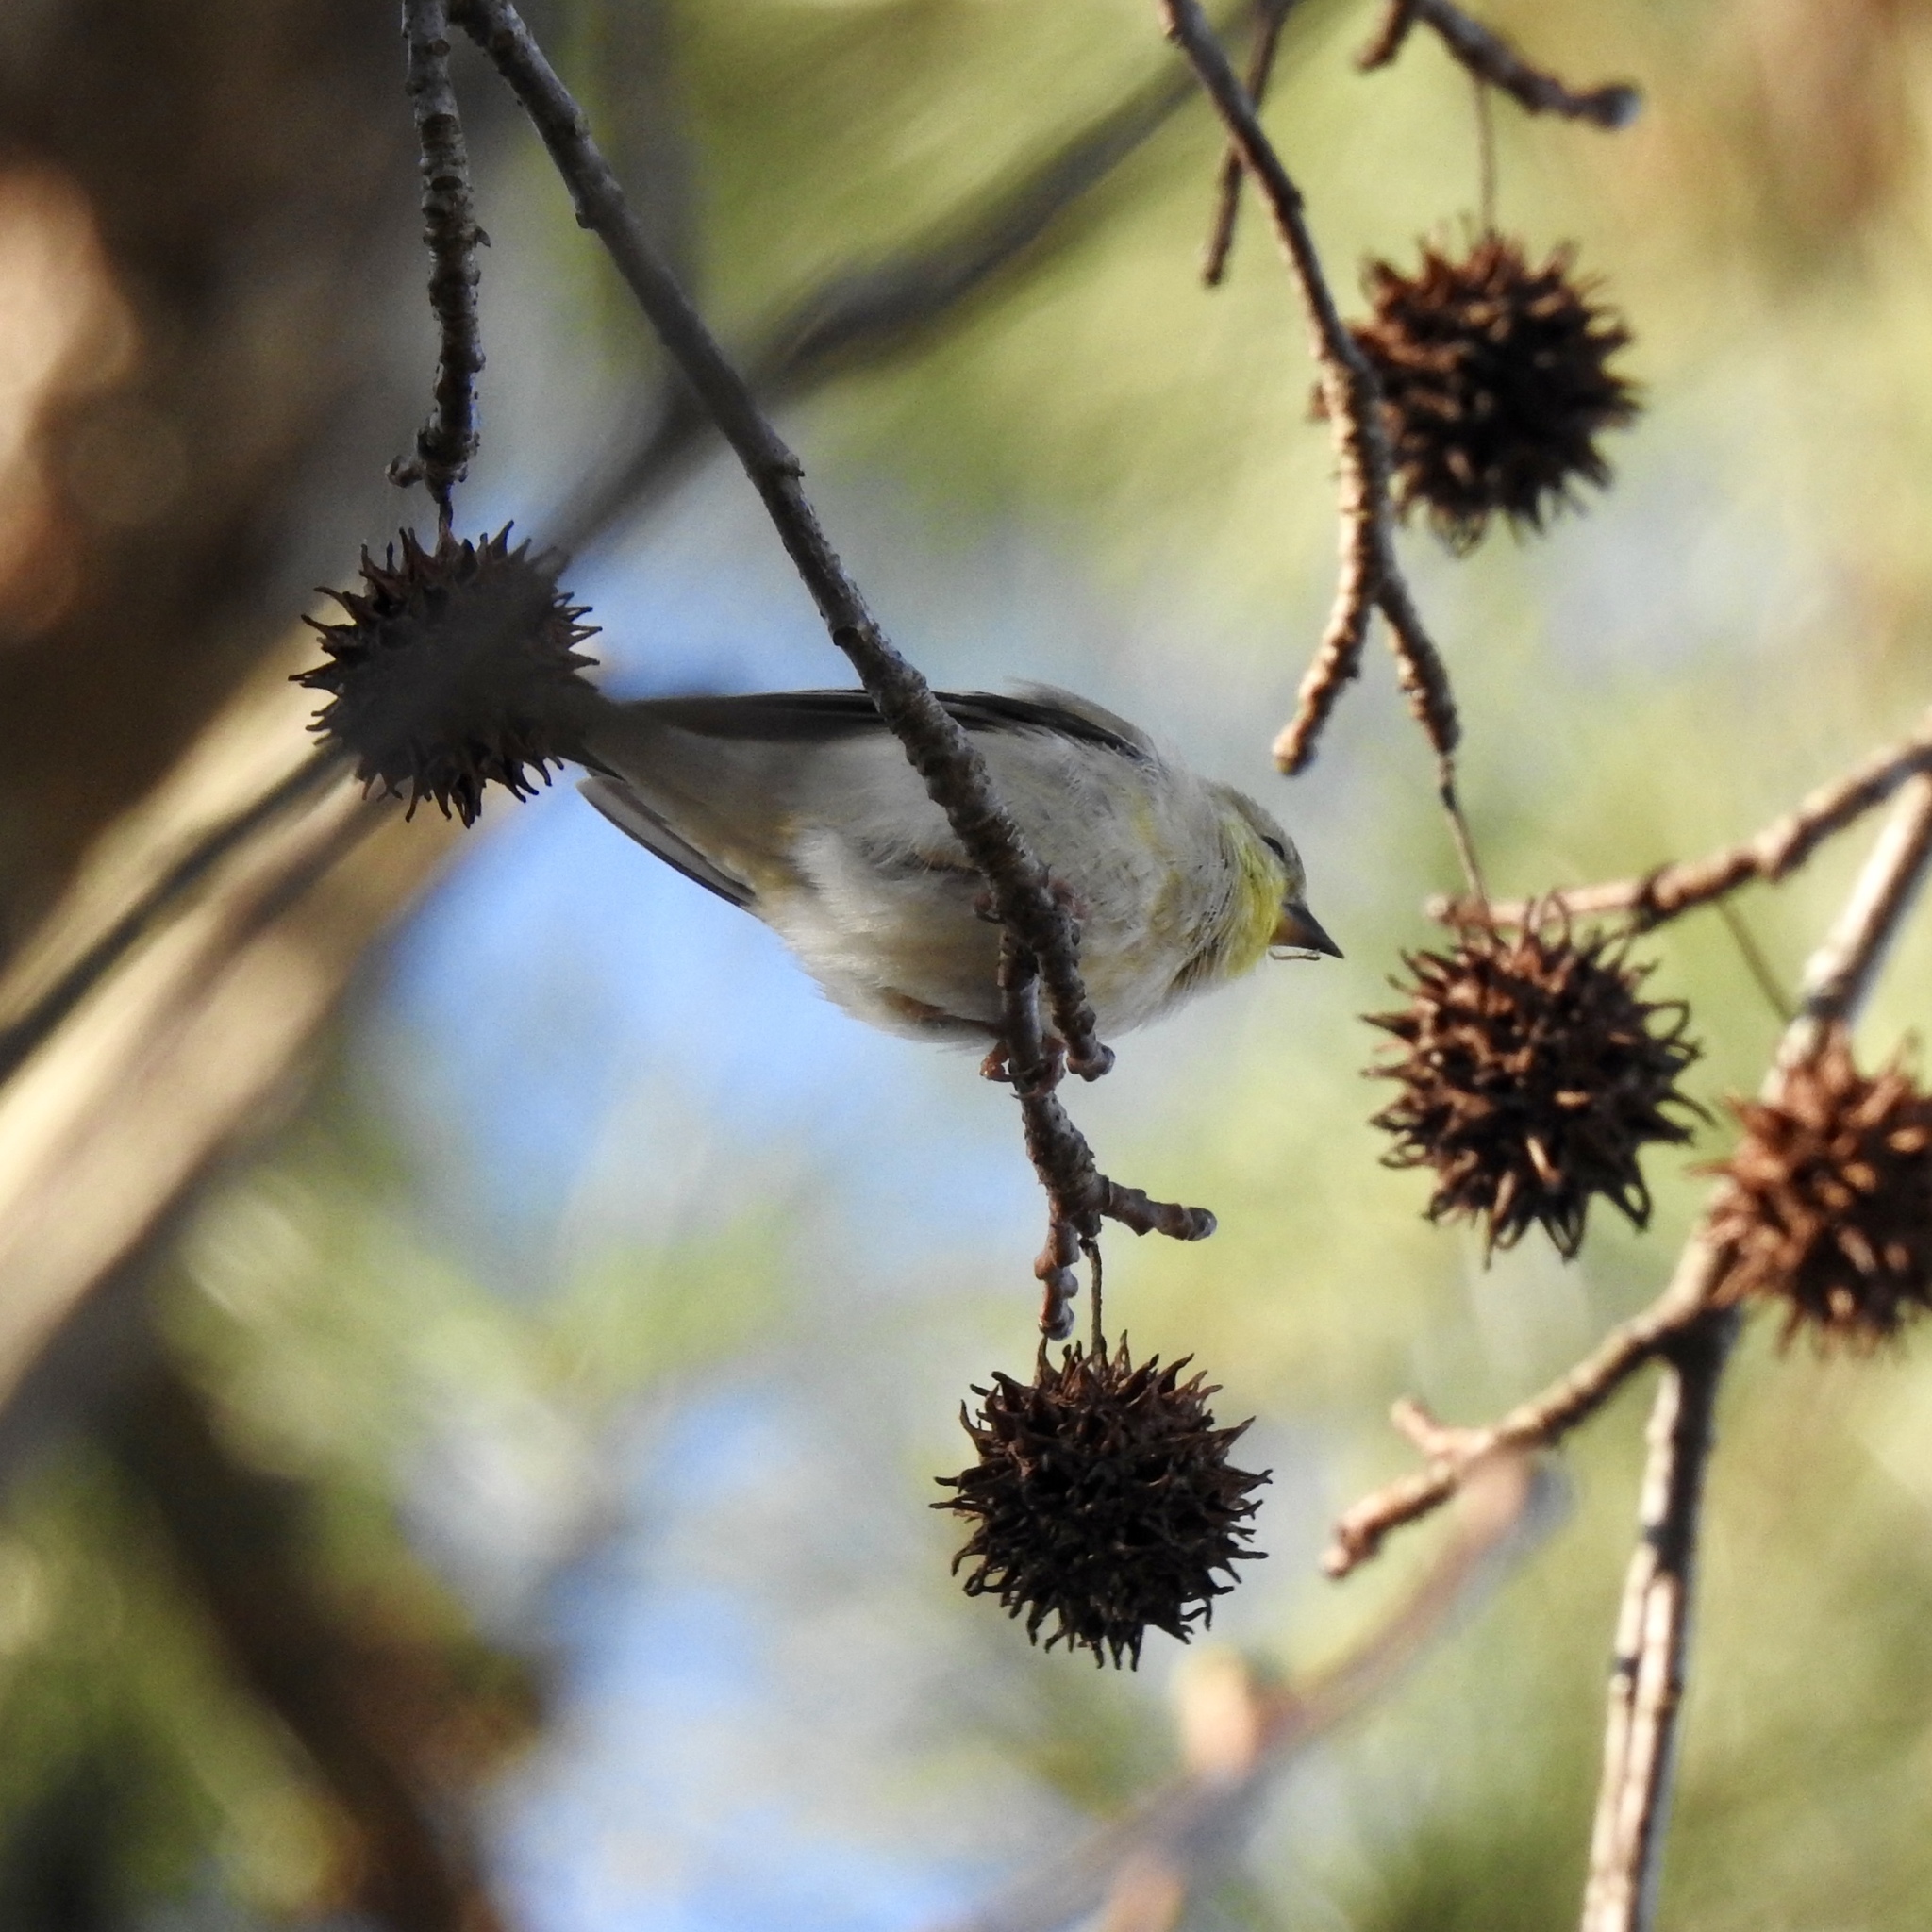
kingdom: Animalia
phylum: Chordata
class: Aves
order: Passeriformes
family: Fringillidae
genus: Spinus
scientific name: Spinus tristis
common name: American goldfinch
